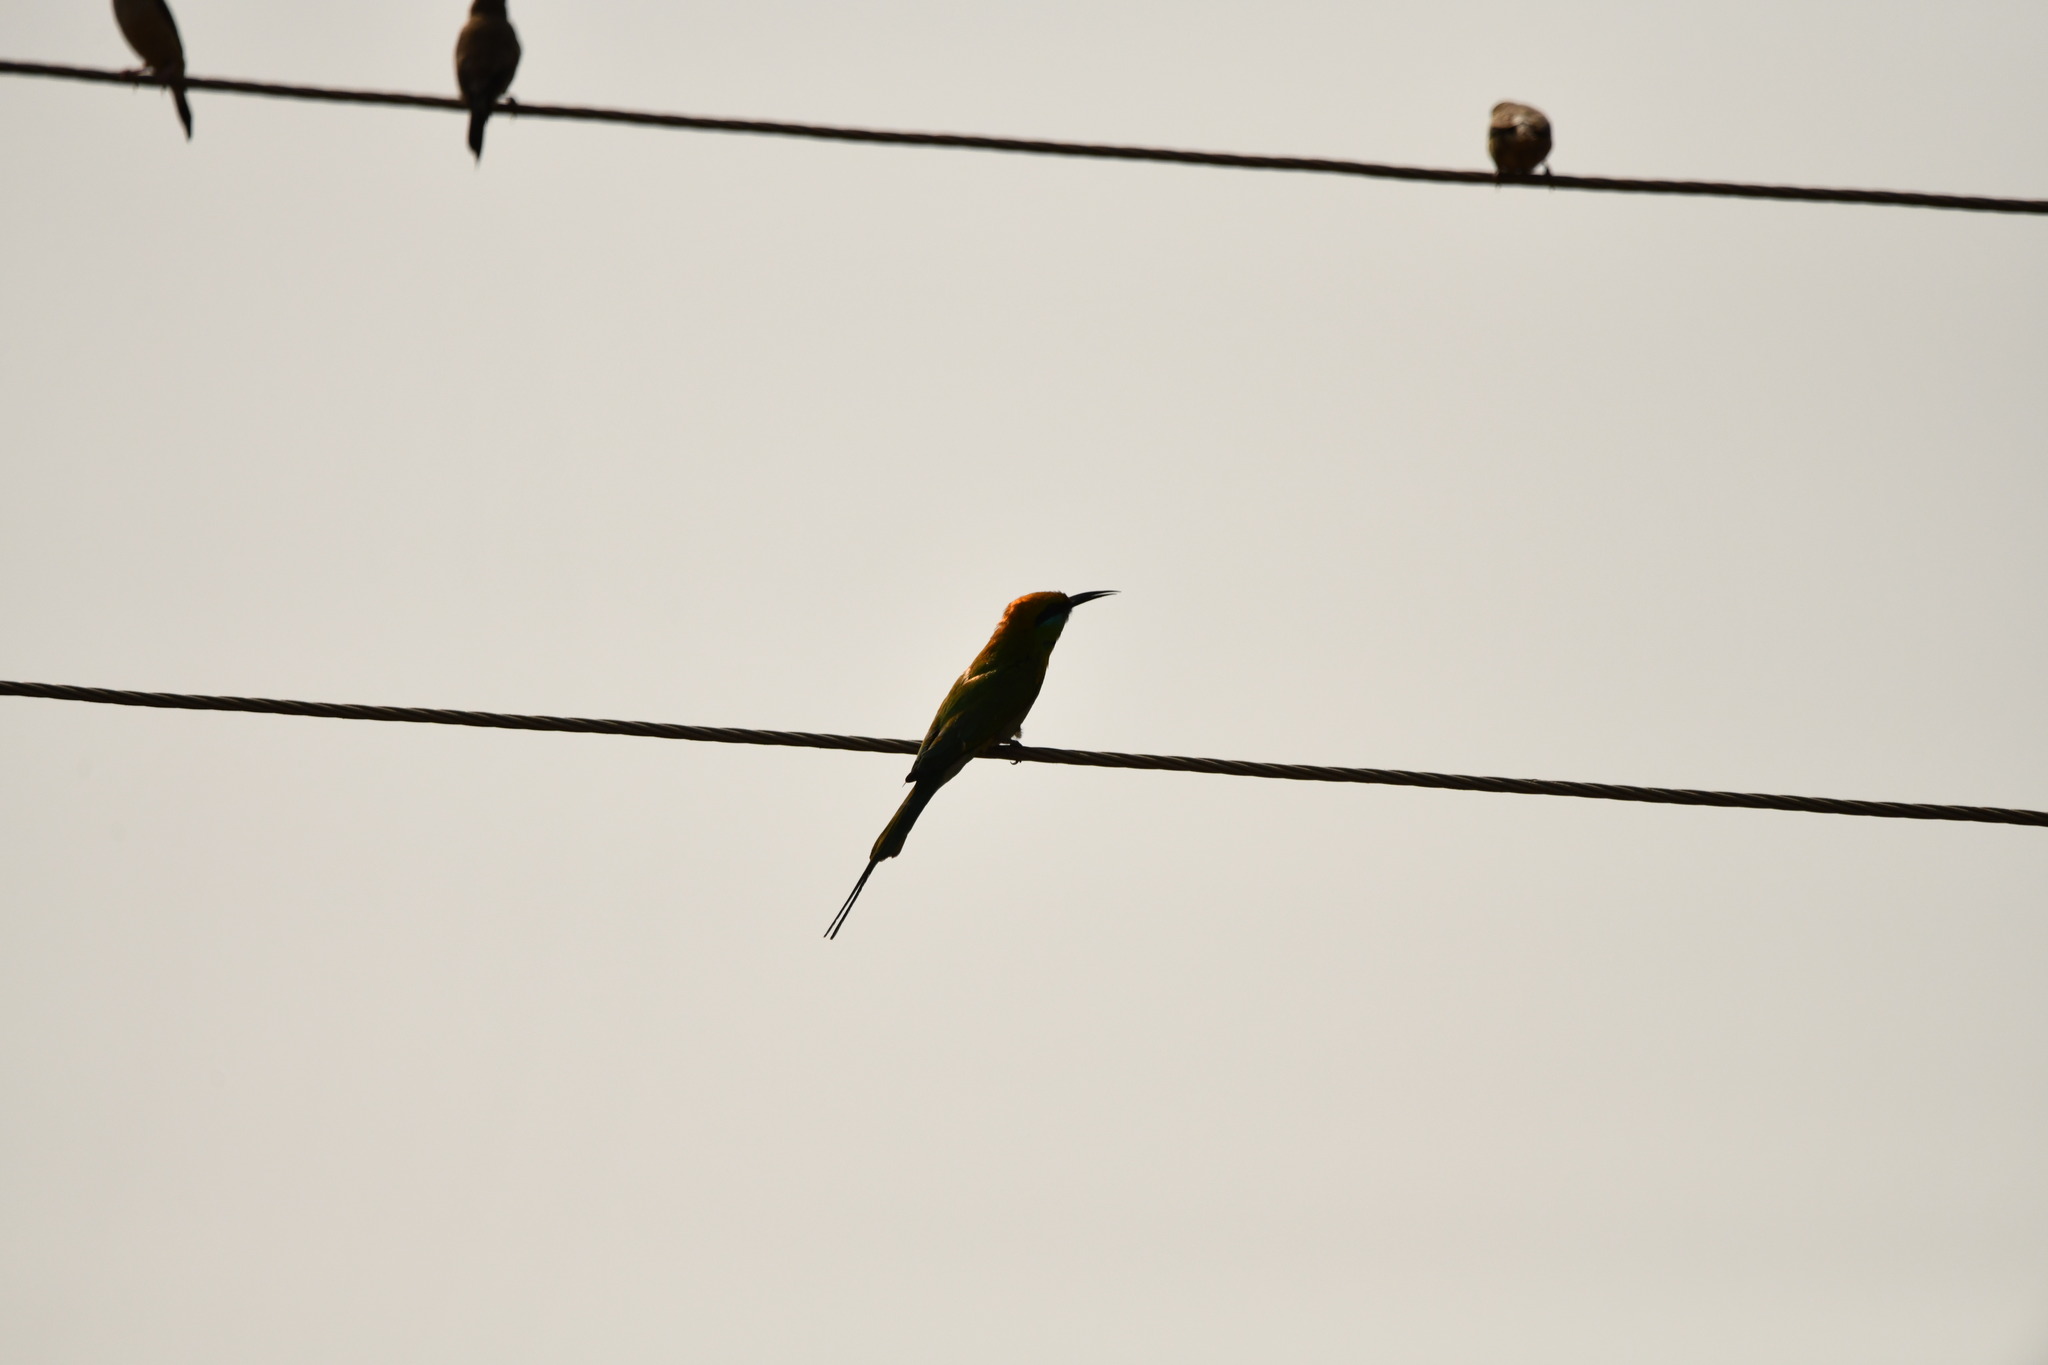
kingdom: Animalia
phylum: Chordata
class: Aves
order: Coraciiformes
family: Meropidae
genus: Merops
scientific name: Merops orientalis
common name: Green bee-eater
